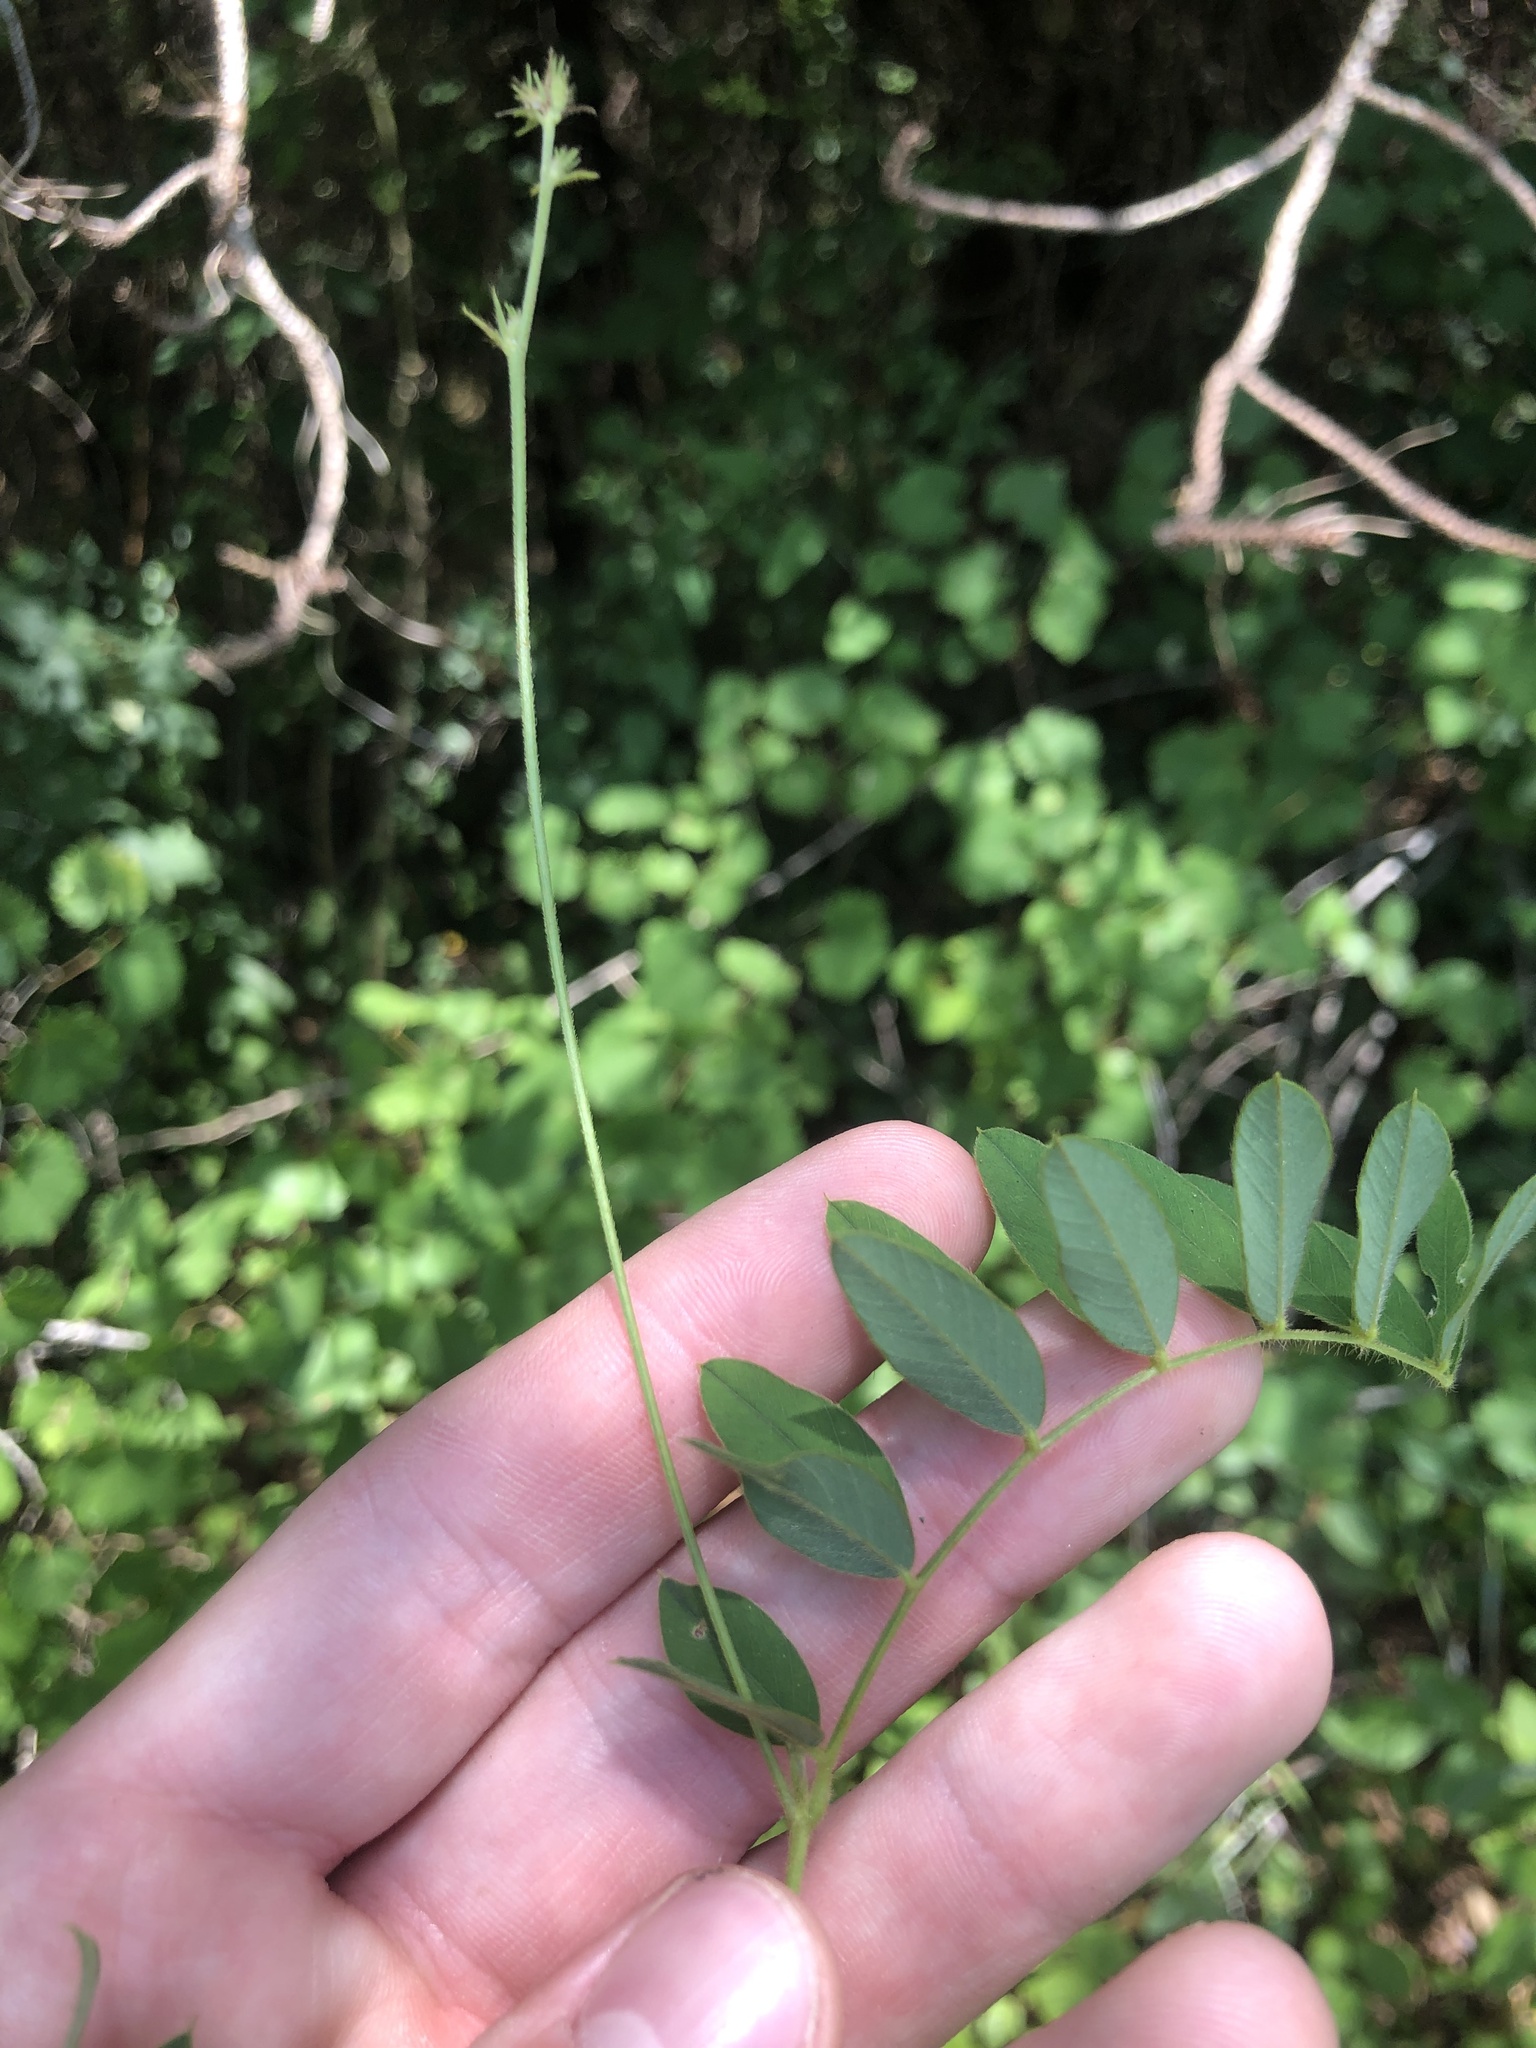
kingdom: Plantae
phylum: Tracheophyta
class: Magnoliopsida
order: Fabales
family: Fabaceae
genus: Tephrosia
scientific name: Tephrosia hispidula
